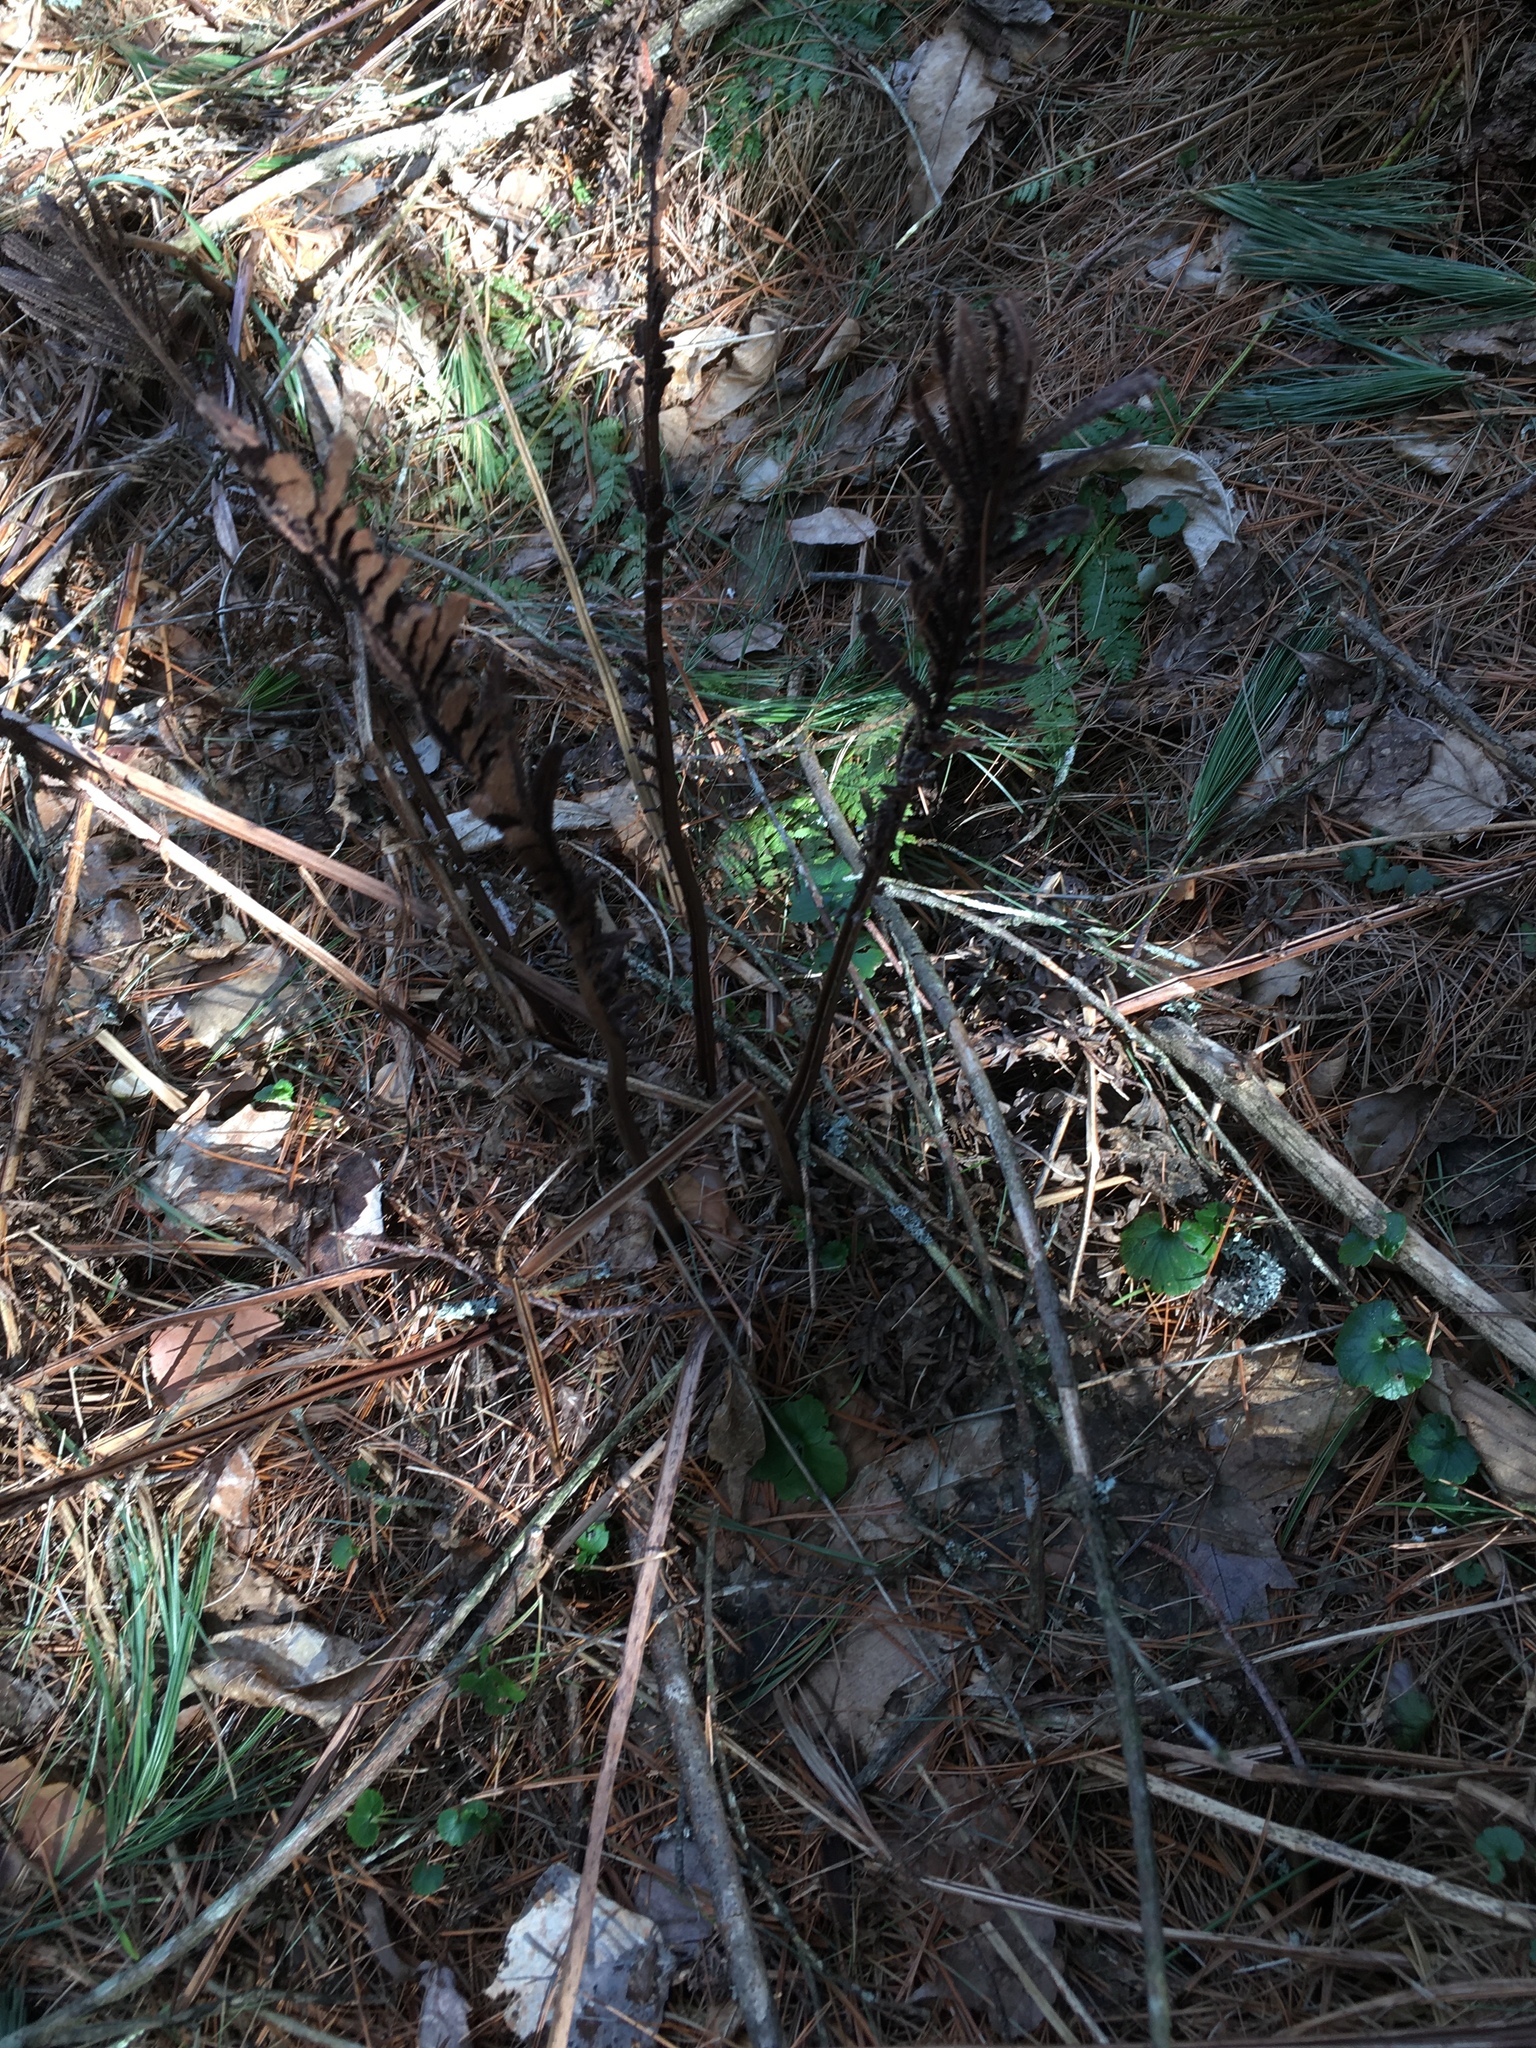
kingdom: Plantae
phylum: Tracheophyta
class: Polypodiopsida
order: Polypodiales
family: Onocleaceae
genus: Matteuccia
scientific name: Matteuccia struthiopteris
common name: Ostrich fern
